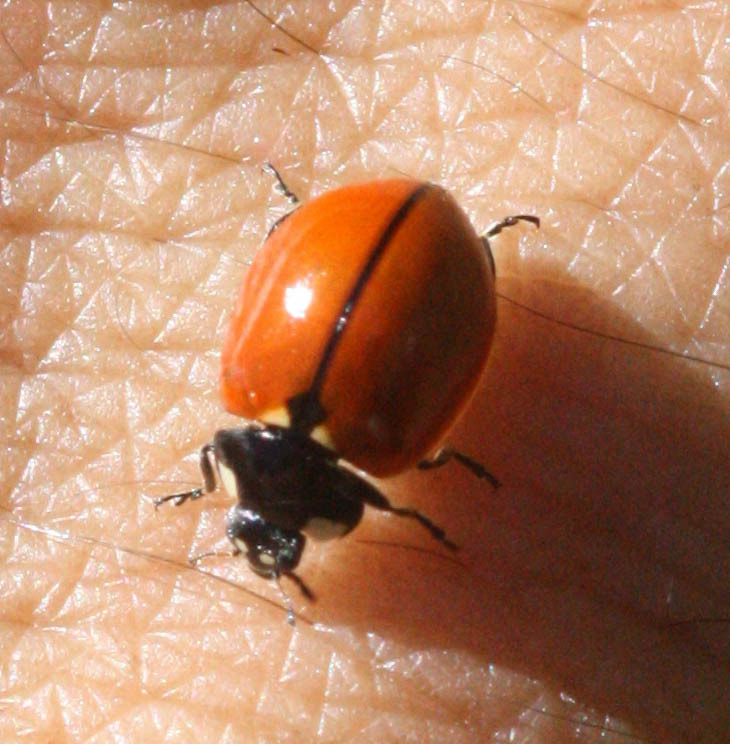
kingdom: Animalia
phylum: Arthropoda
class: Insecta
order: Coleoptera
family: Coccinellidae
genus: Coccinella
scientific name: Coccinella californica
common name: Lady beetle
